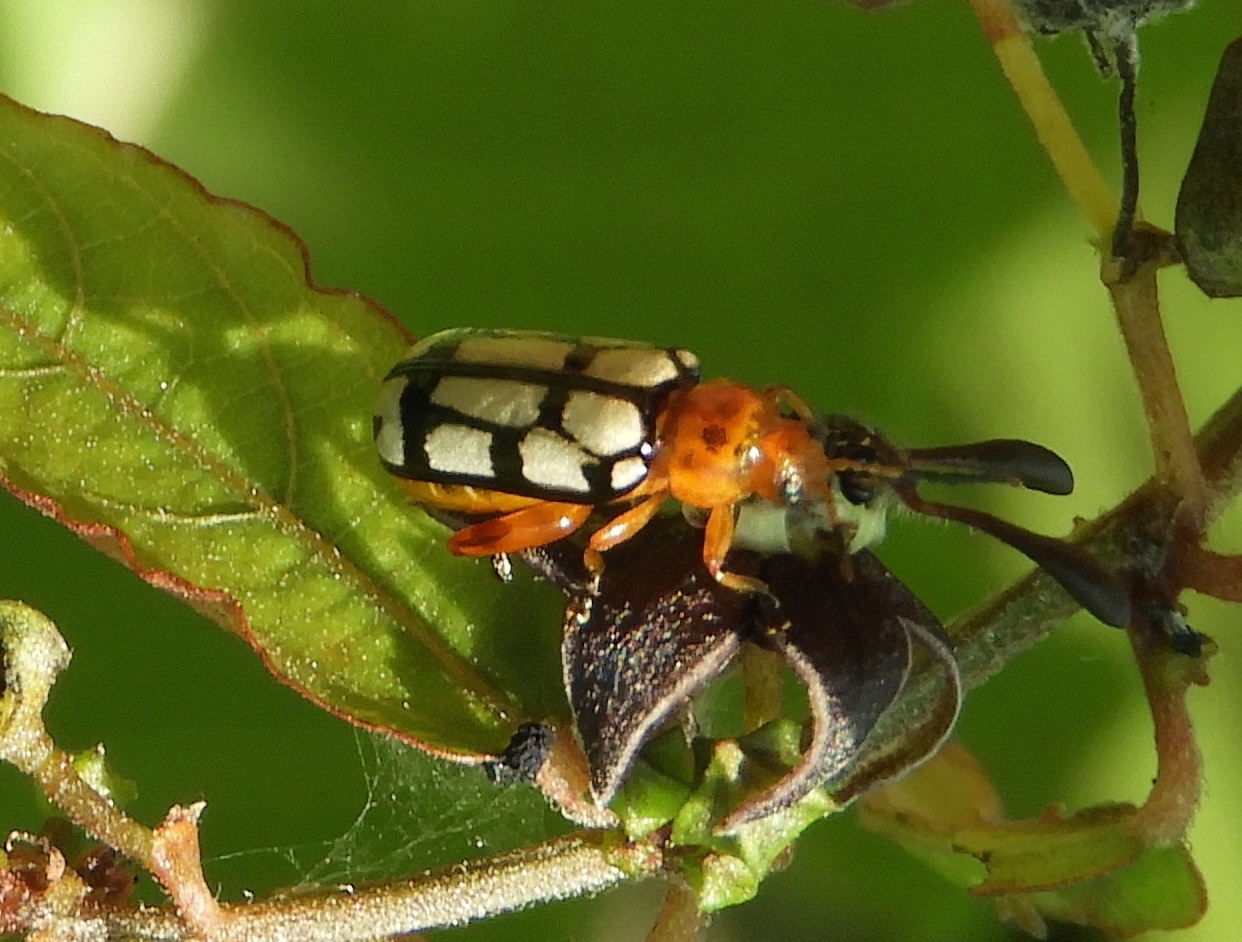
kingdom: Animalia
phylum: Arthropoda
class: Insecta
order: Coleoptera
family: Chrysomelidae
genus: Disonycha
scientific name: Disonycha
